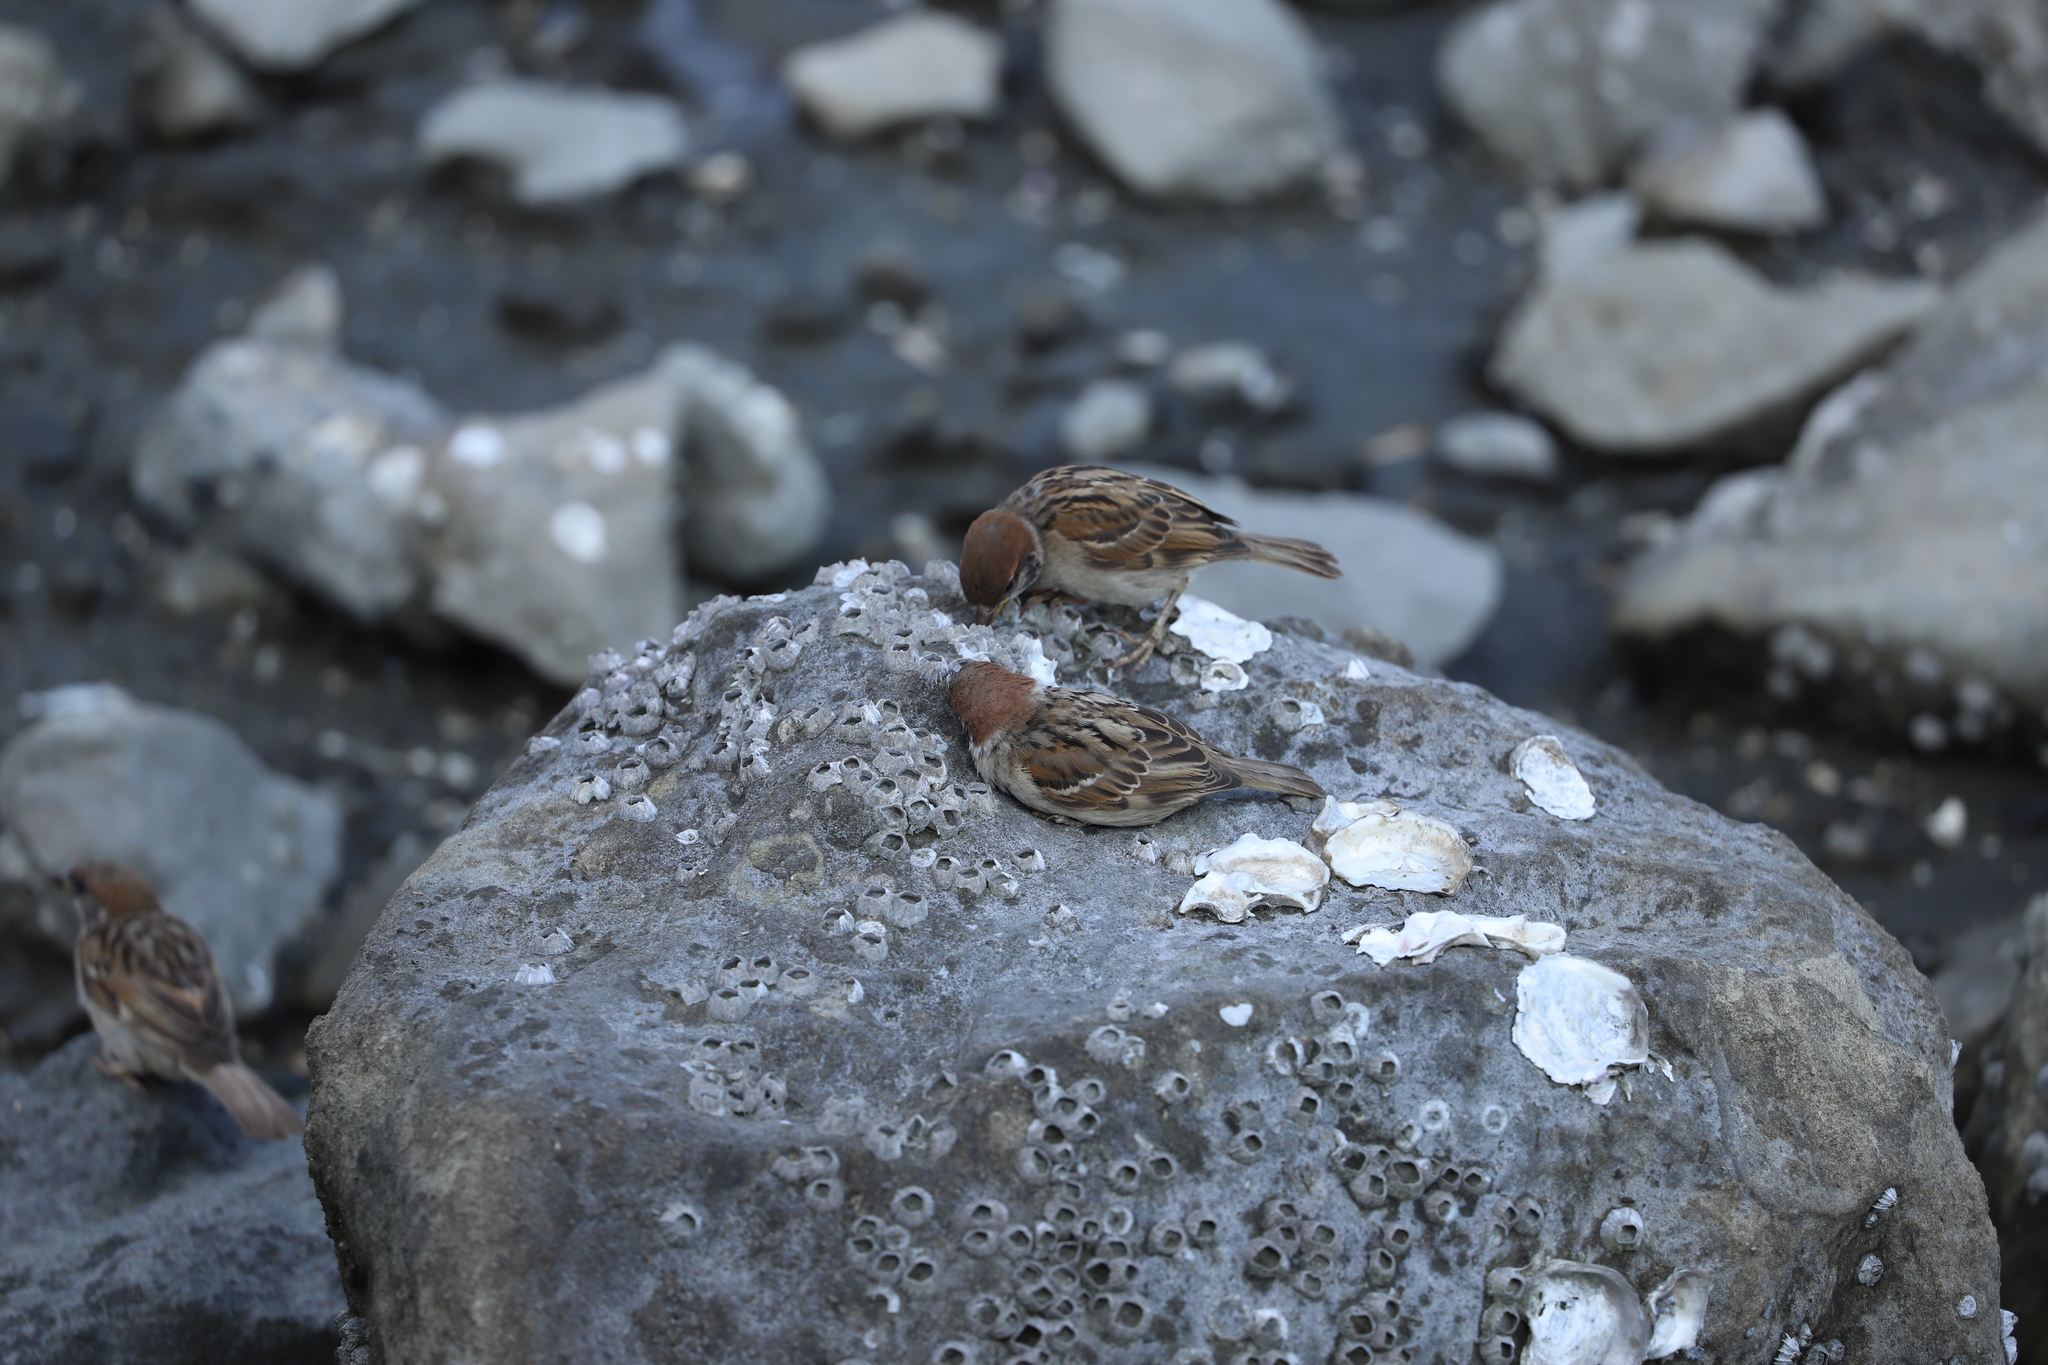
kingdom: Animalia
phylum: Chordata
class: Aves
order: Passeriformes
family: Passeridae
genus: Passer
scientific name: Passer montanus
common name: Eurasian tree sparrow
